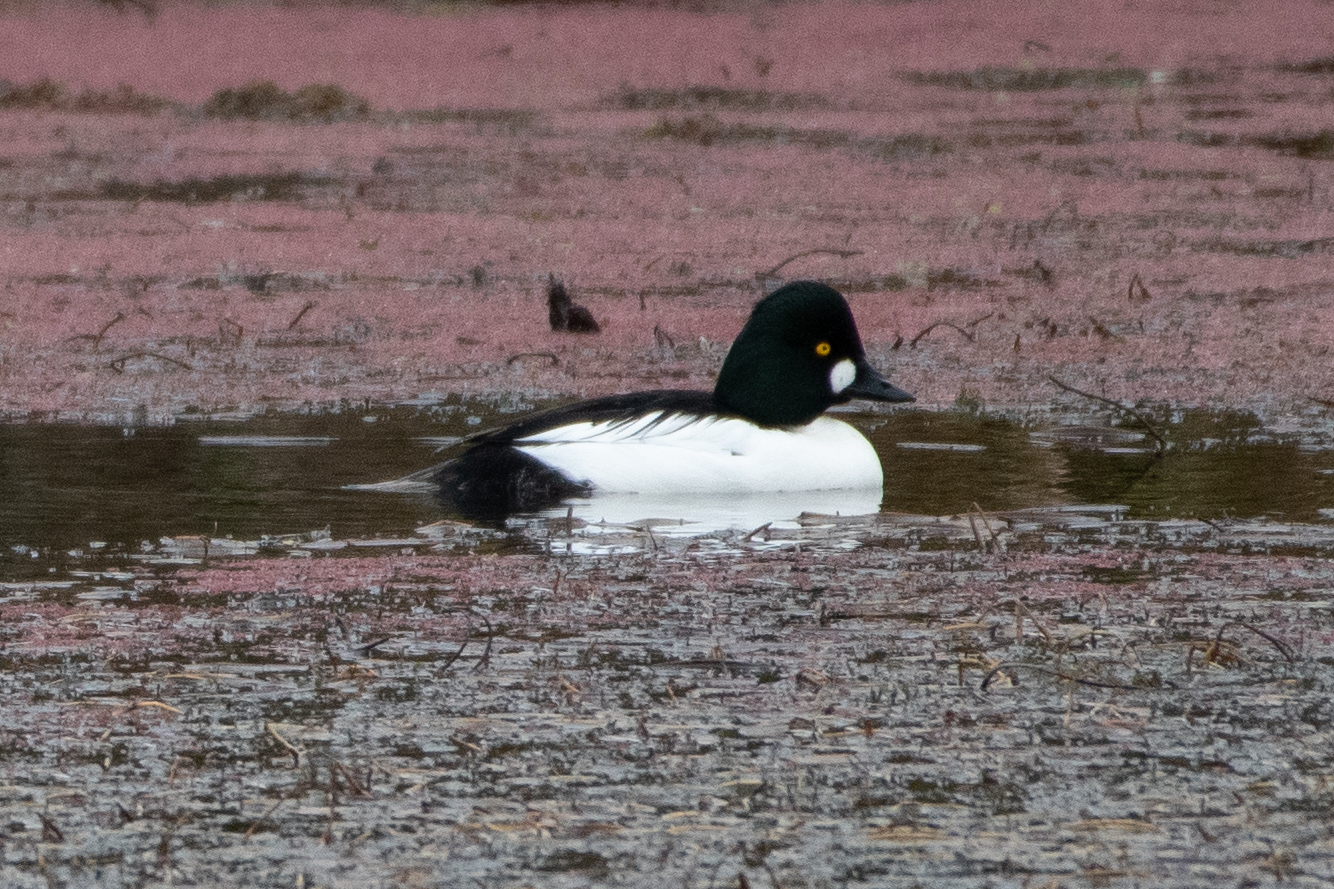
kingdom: Animalia
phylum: Chordata
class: Aves
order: Anseriformes
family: Anatidae
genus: Bucephala
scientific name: Bucephala clangula
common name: Common goldeneye
